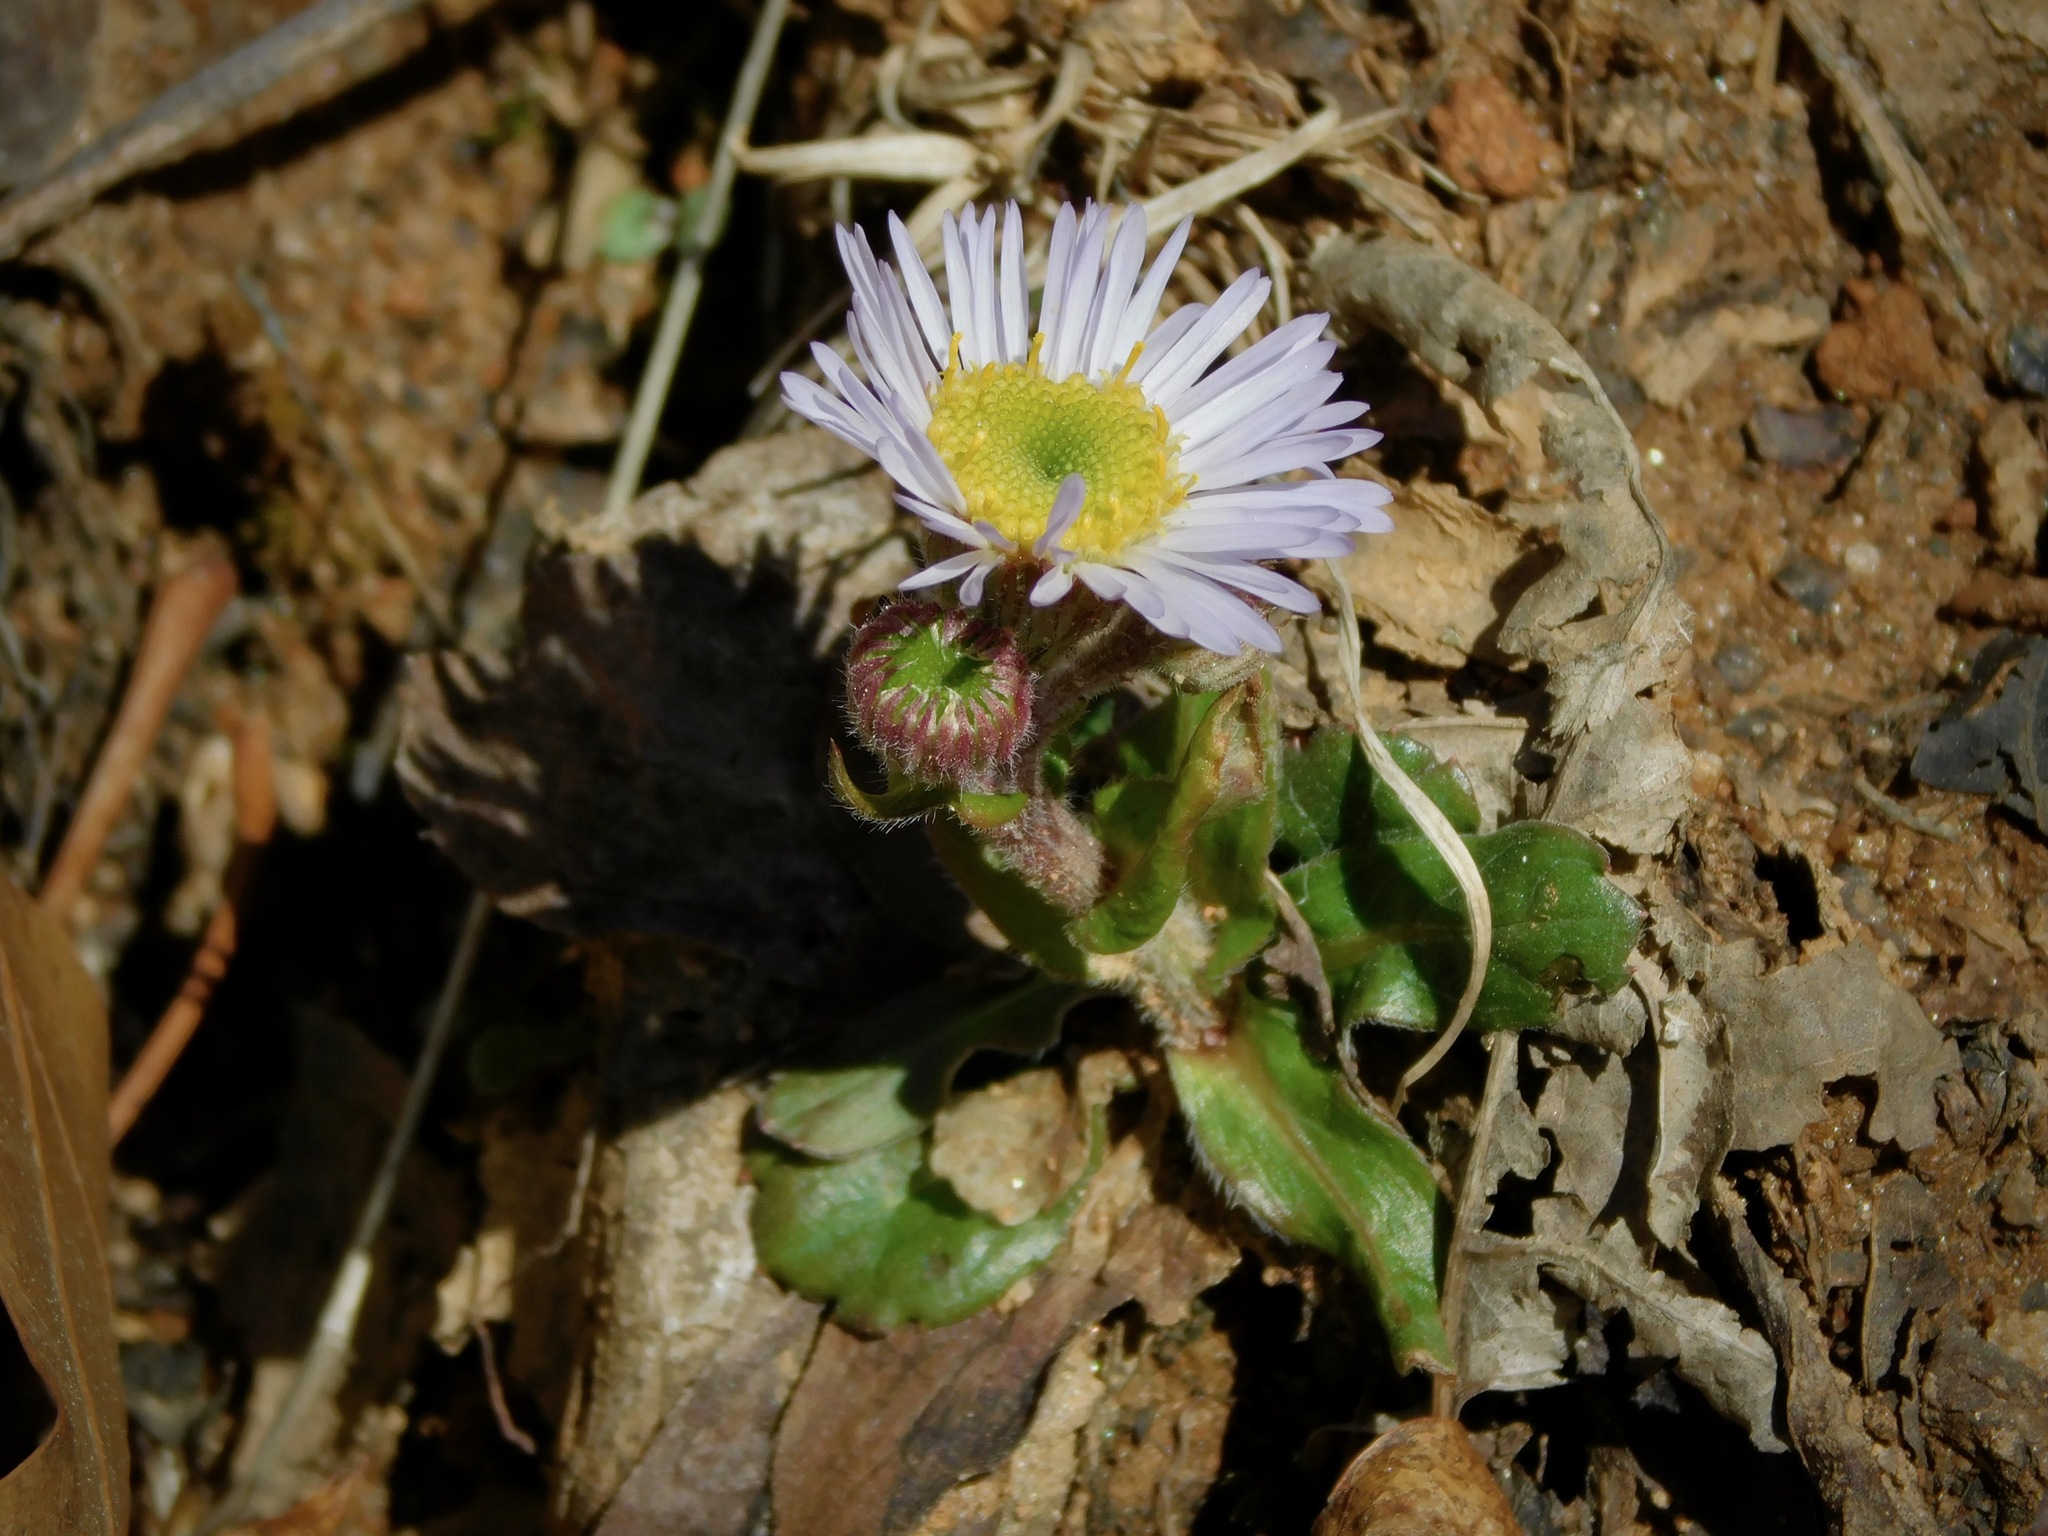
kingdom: Plantae
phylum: Tracheophyta
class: Magnoliopsida
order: Asterales
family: Asteraceae
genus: Erigeron
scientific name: Erigeron pulchellus
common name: Hairy fleabane
